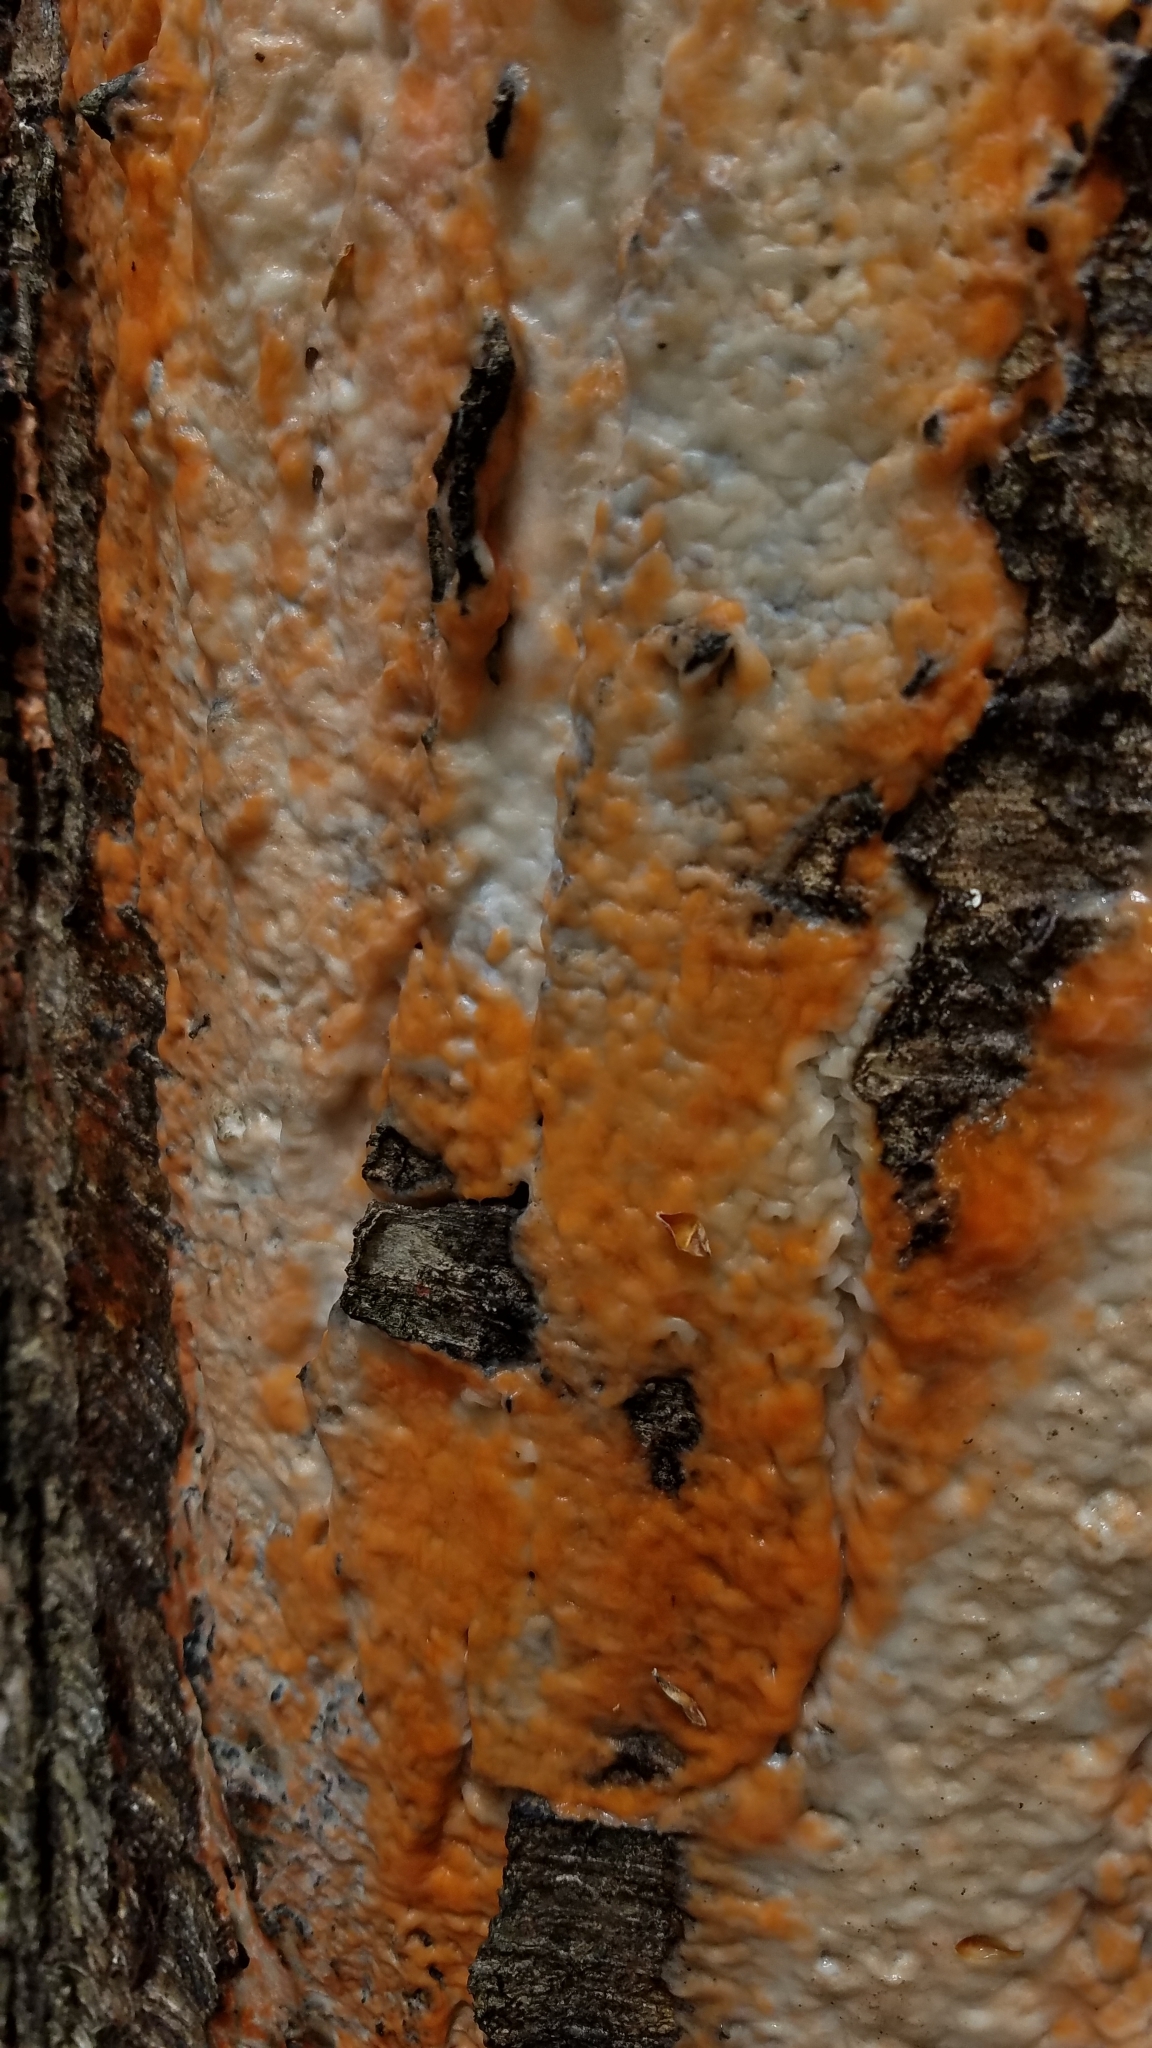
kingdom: Fungi
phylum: Basidiomycota
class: Tremellomycetes
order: Cystofilobasidiales
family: Cystofilobasidiaceae
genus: Cystofilobasidium
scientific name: Cystofilobasidium macerans
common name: Sap yeast
